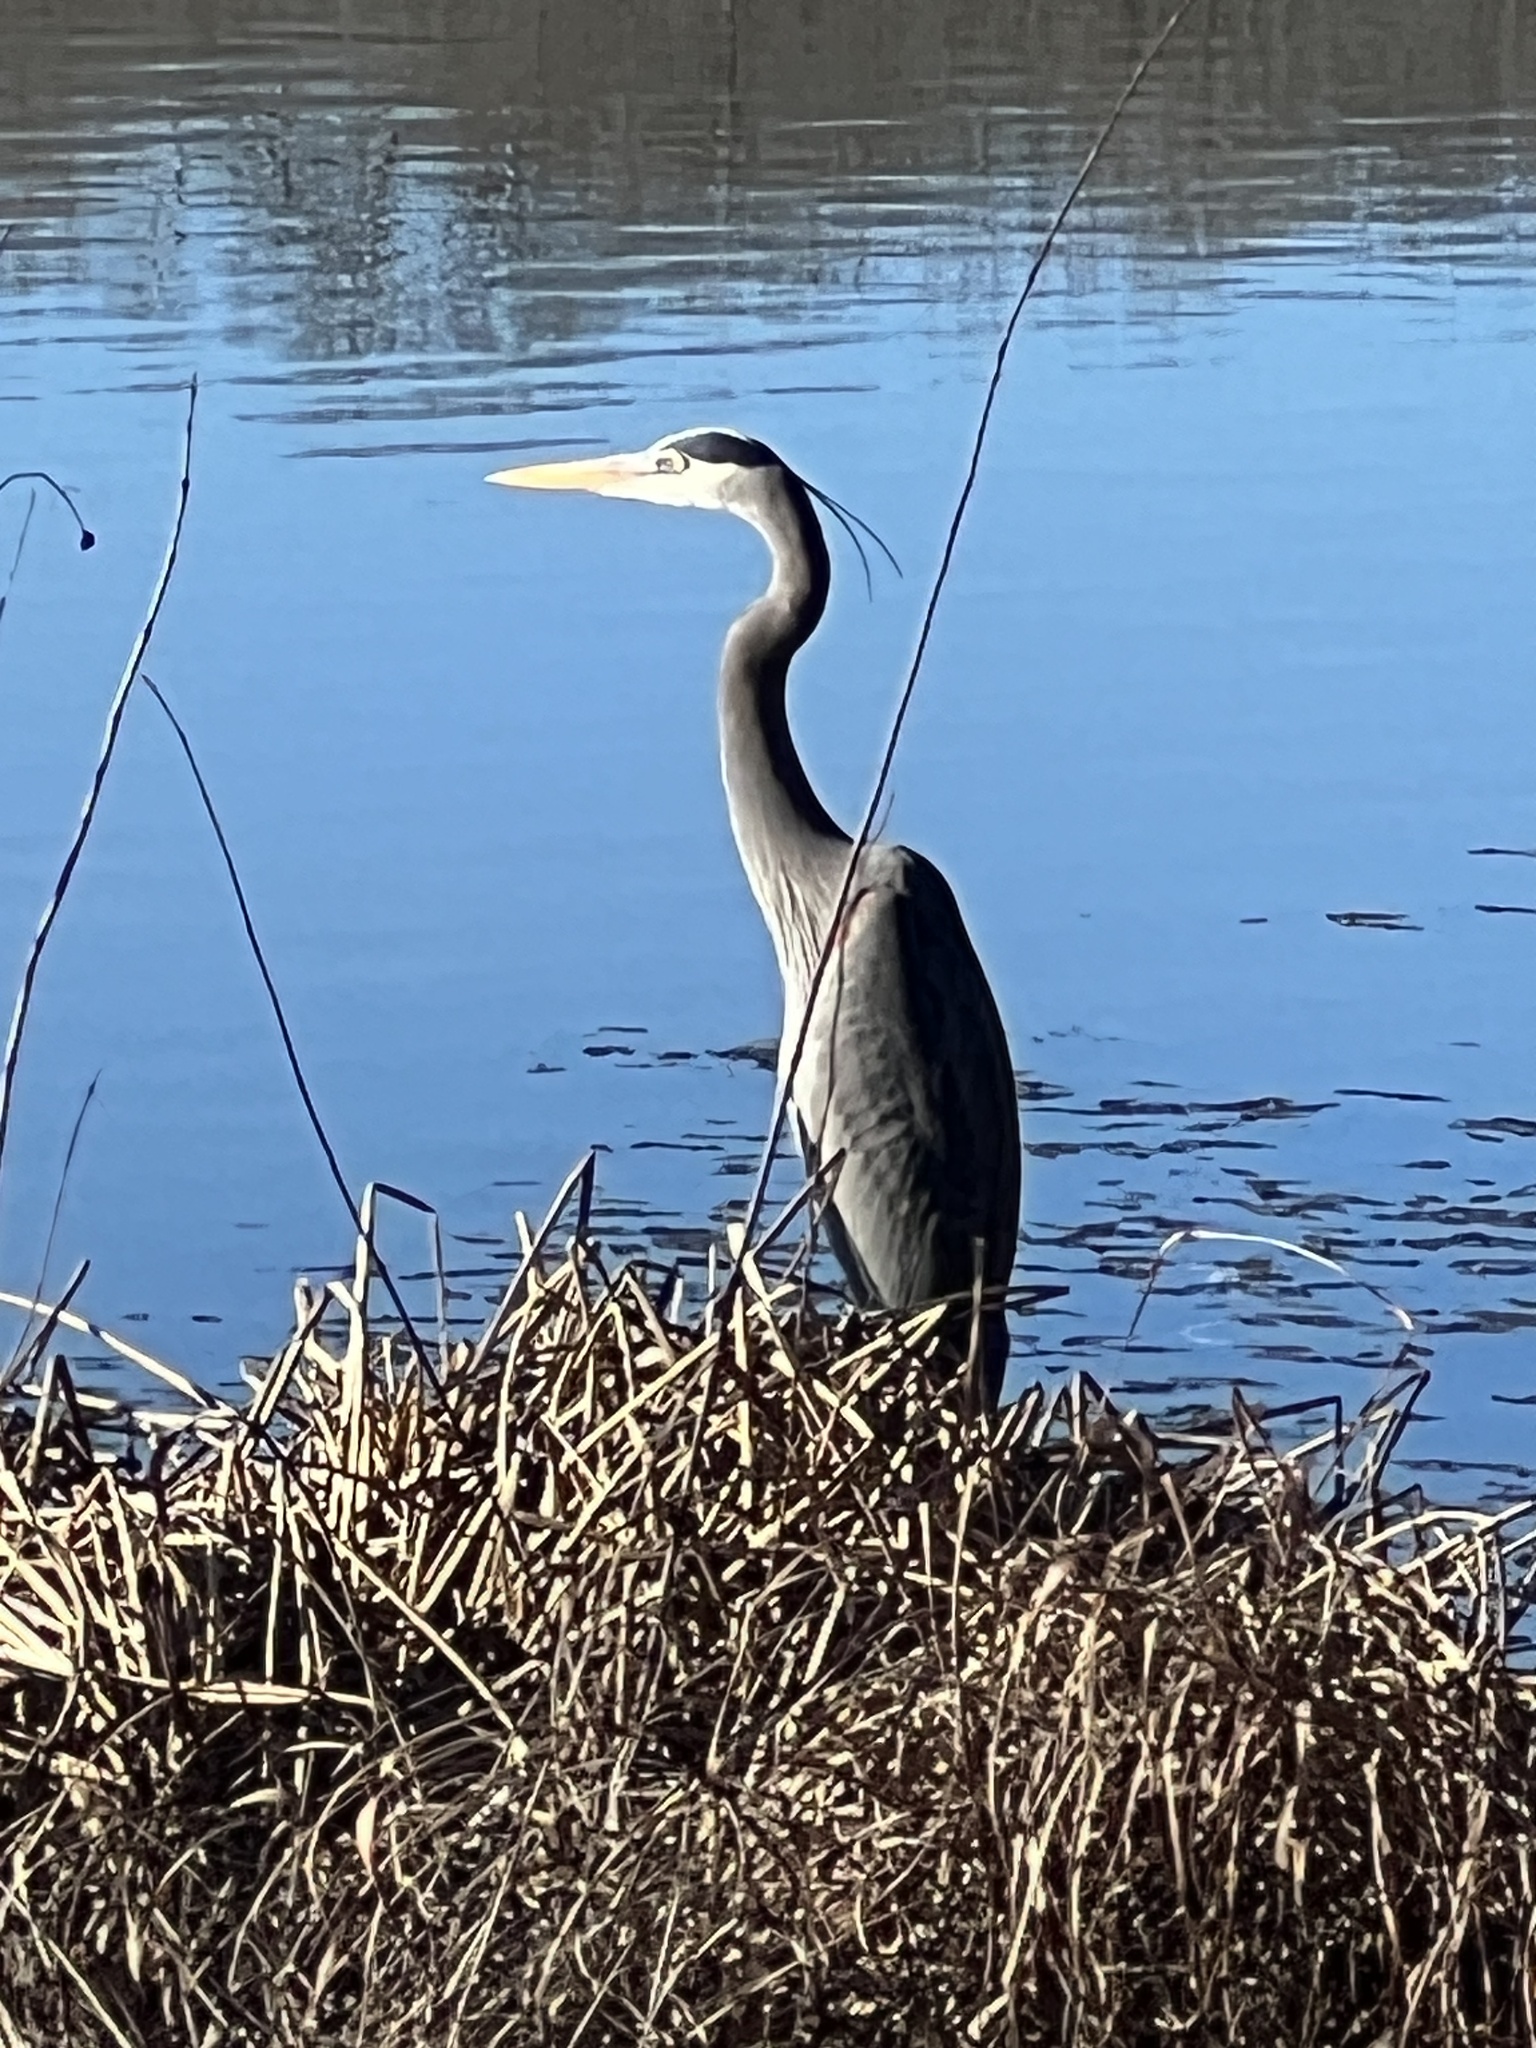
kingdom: Animalia
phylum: Chordata
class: Aves
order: Pelecaniformes
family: Ardeidae
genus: Ardea
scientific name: Ardea herodias
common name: Great blue heron
